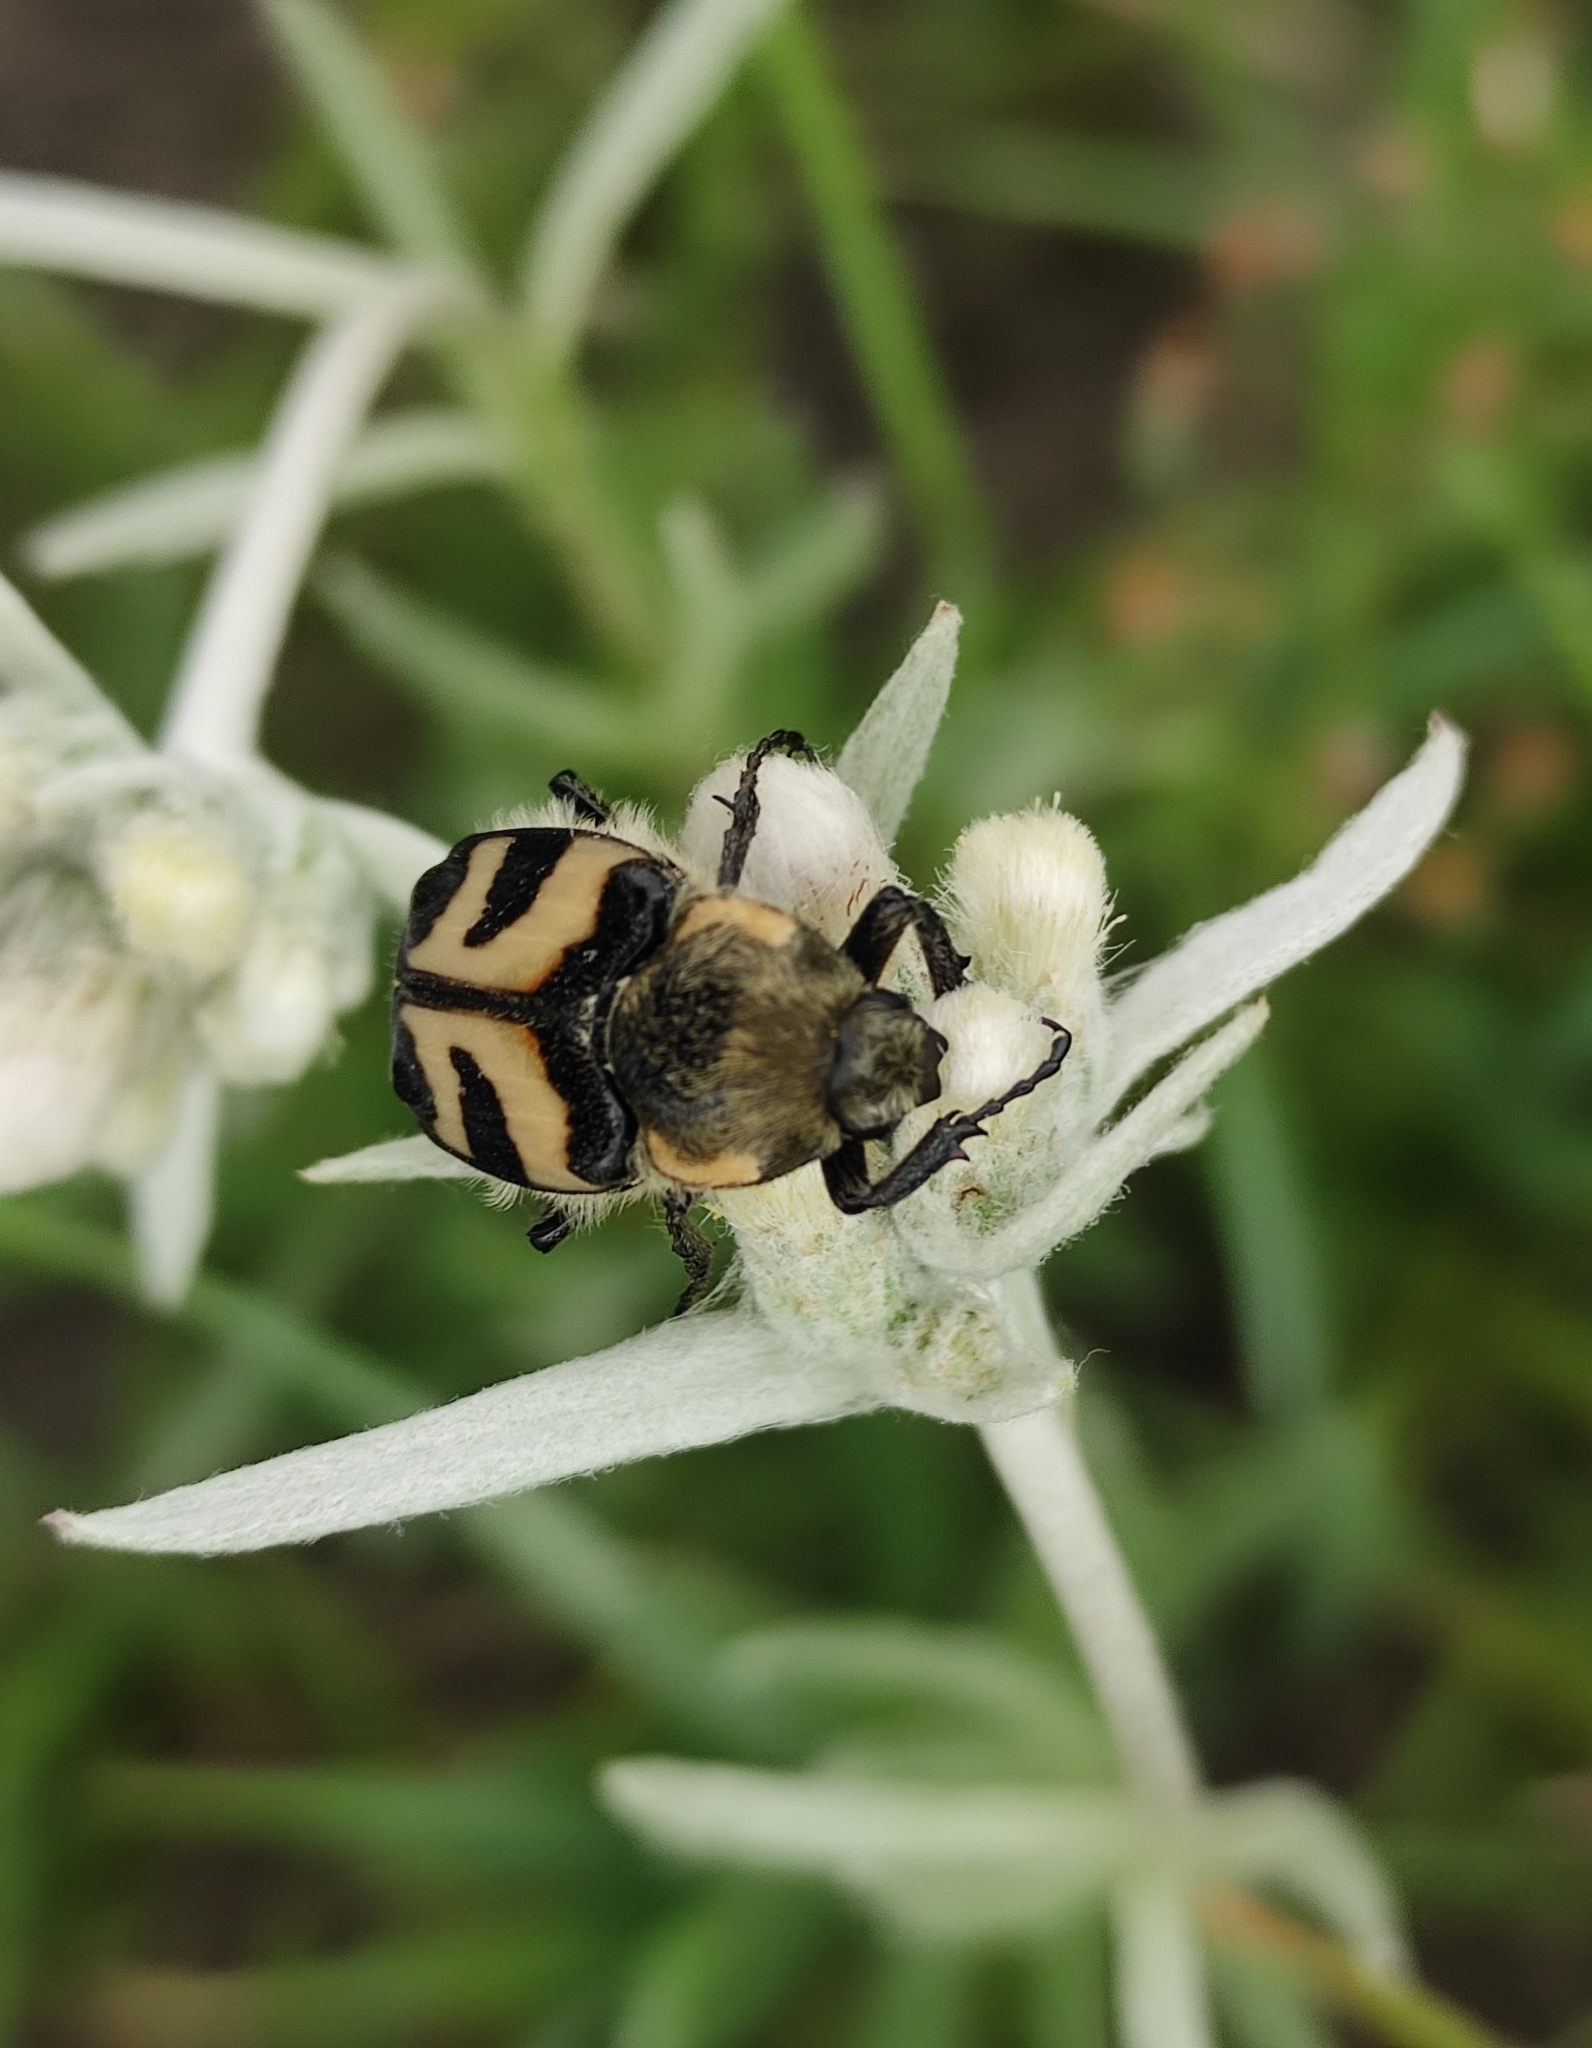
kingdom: Animalia
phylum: Arthropoda
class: Insecta
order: Coleoptera
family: Scarabaeidae
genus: Trichius
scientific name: Trichius fasciatus
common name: Bee beetle
